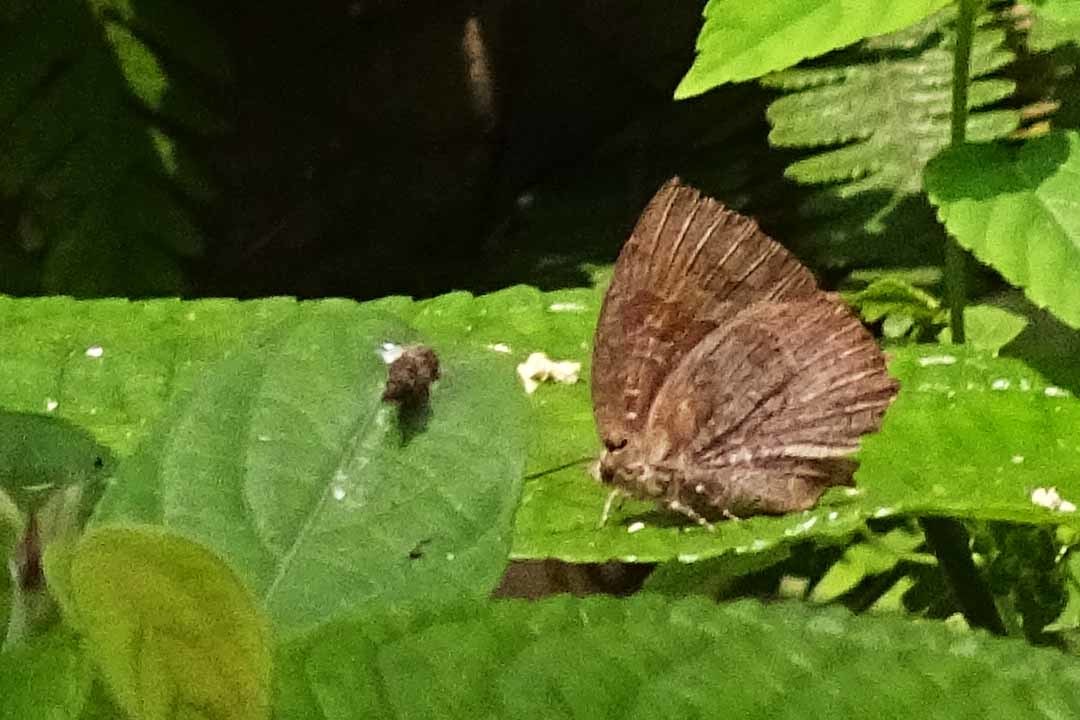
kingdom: Animalia
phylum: Arthropoda
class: Insecta
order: Lepidoptera
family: Lycaenidae
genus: Thaduka
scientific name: Thaduka multicaudata
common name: Many-tailed oakblue
